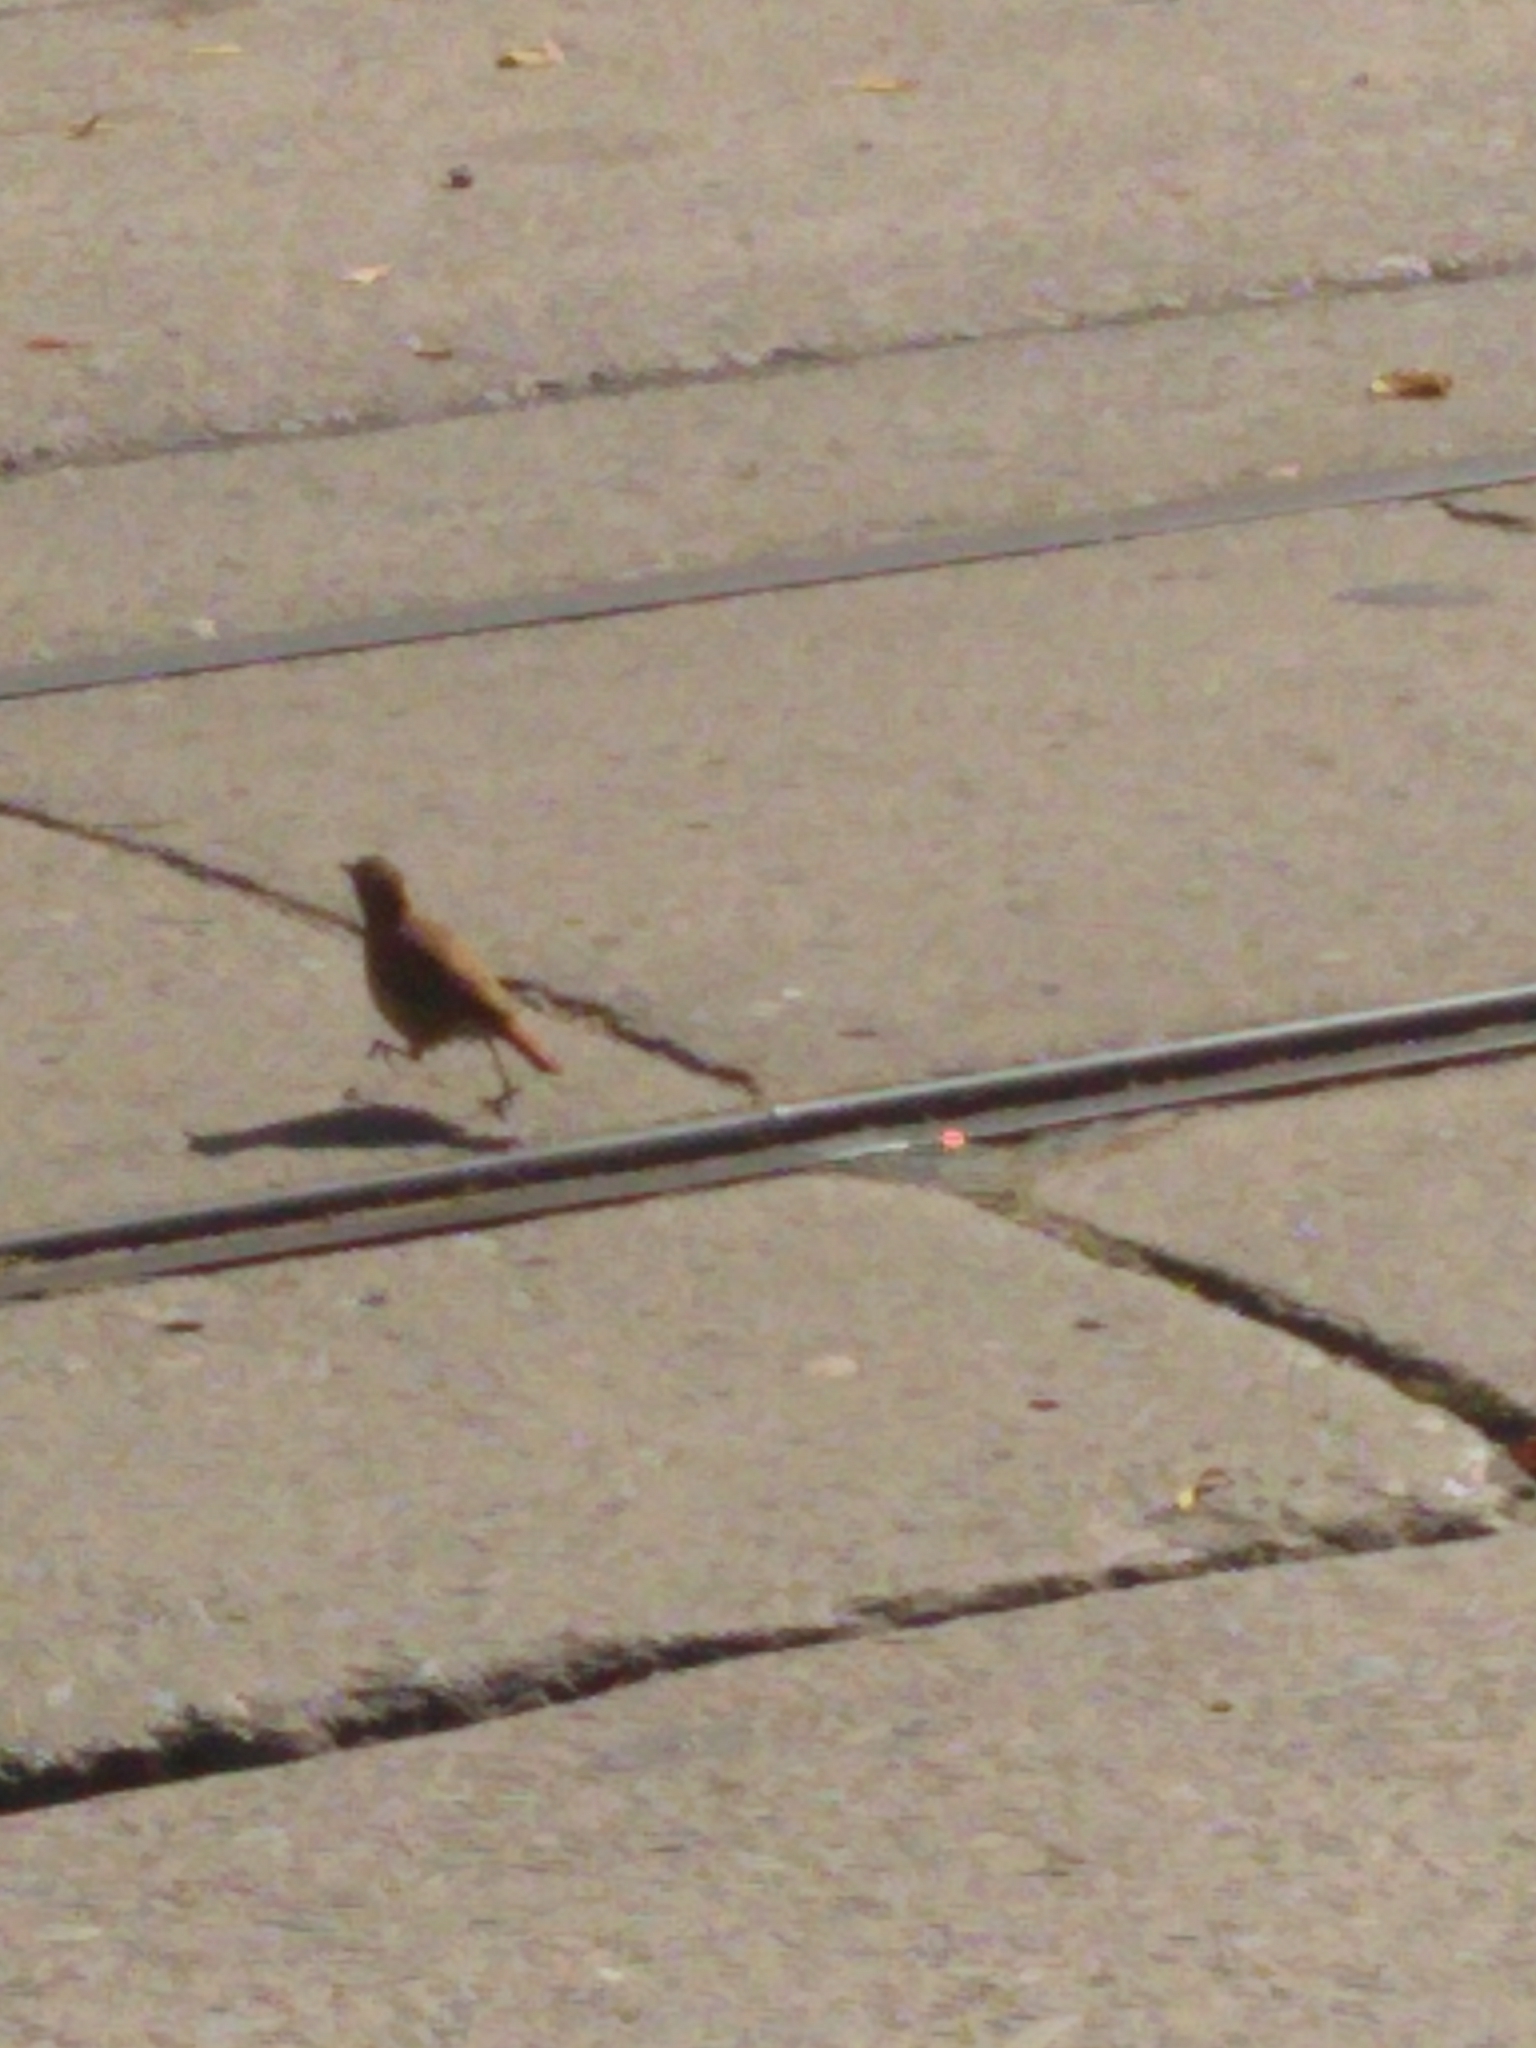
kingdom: Animalia
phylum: Chordata
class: Aves
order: Passeriformes
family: Furnariidae
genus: Furnarius
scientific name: Furnarius rufus
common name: Rufous hornero
